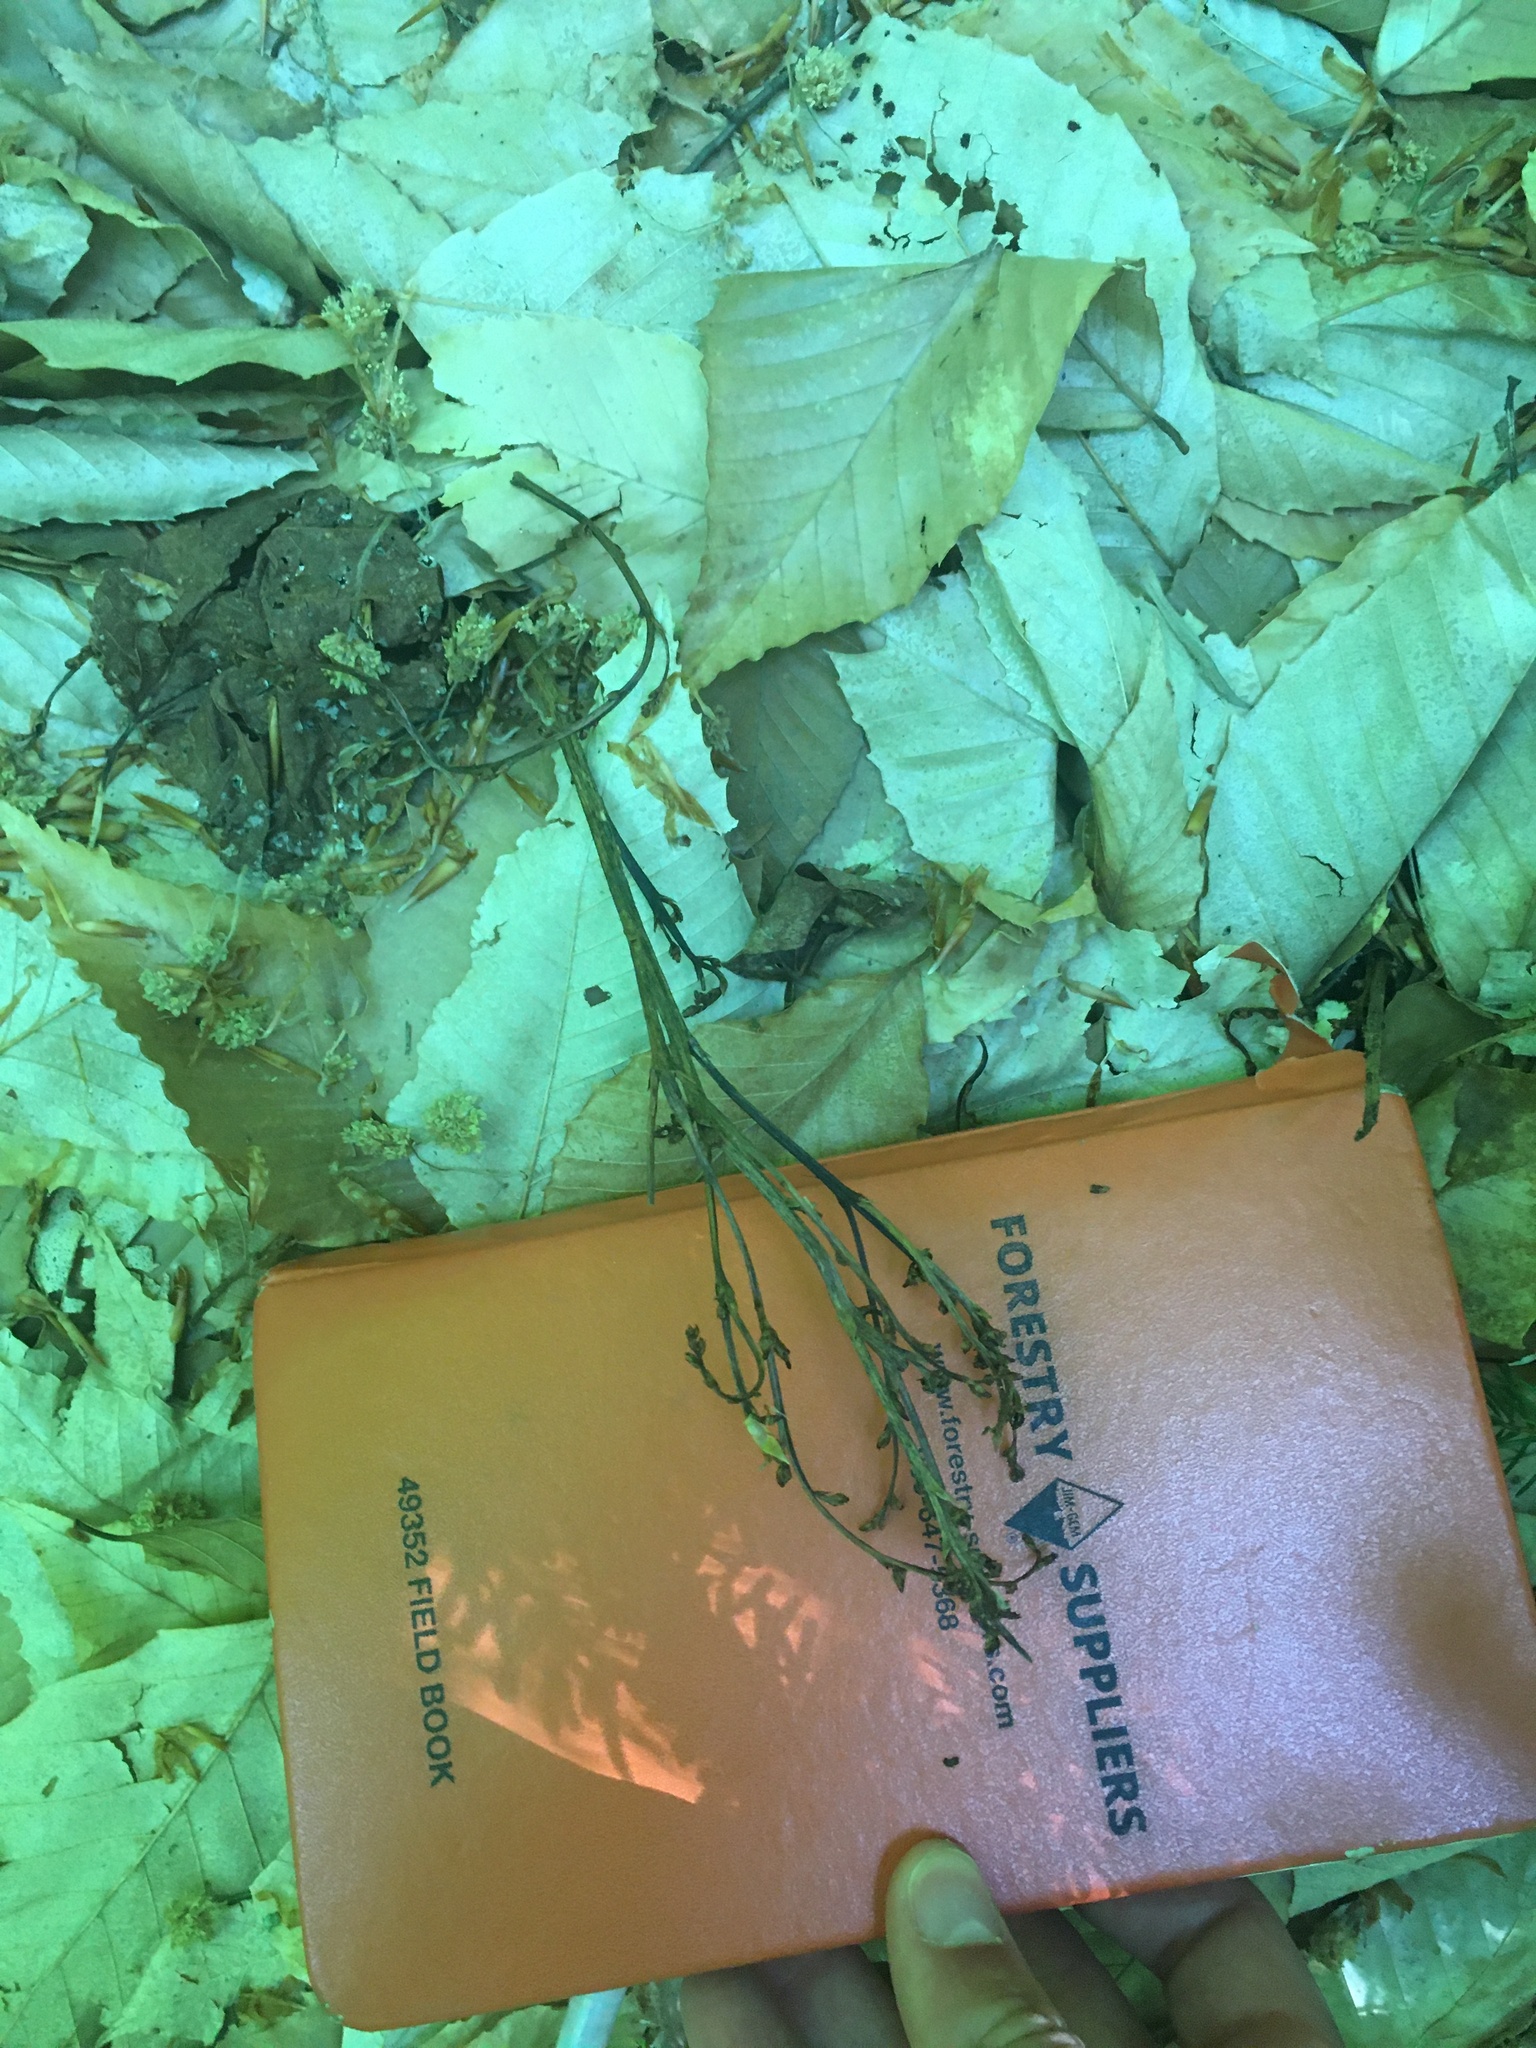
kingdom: Plantae
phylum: Tracheophyta
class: Magnoliopsida
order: Lamiales
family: Orobanchaceae
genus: Epifagus
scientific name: Epifagus virginiana
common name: Beechdrops
